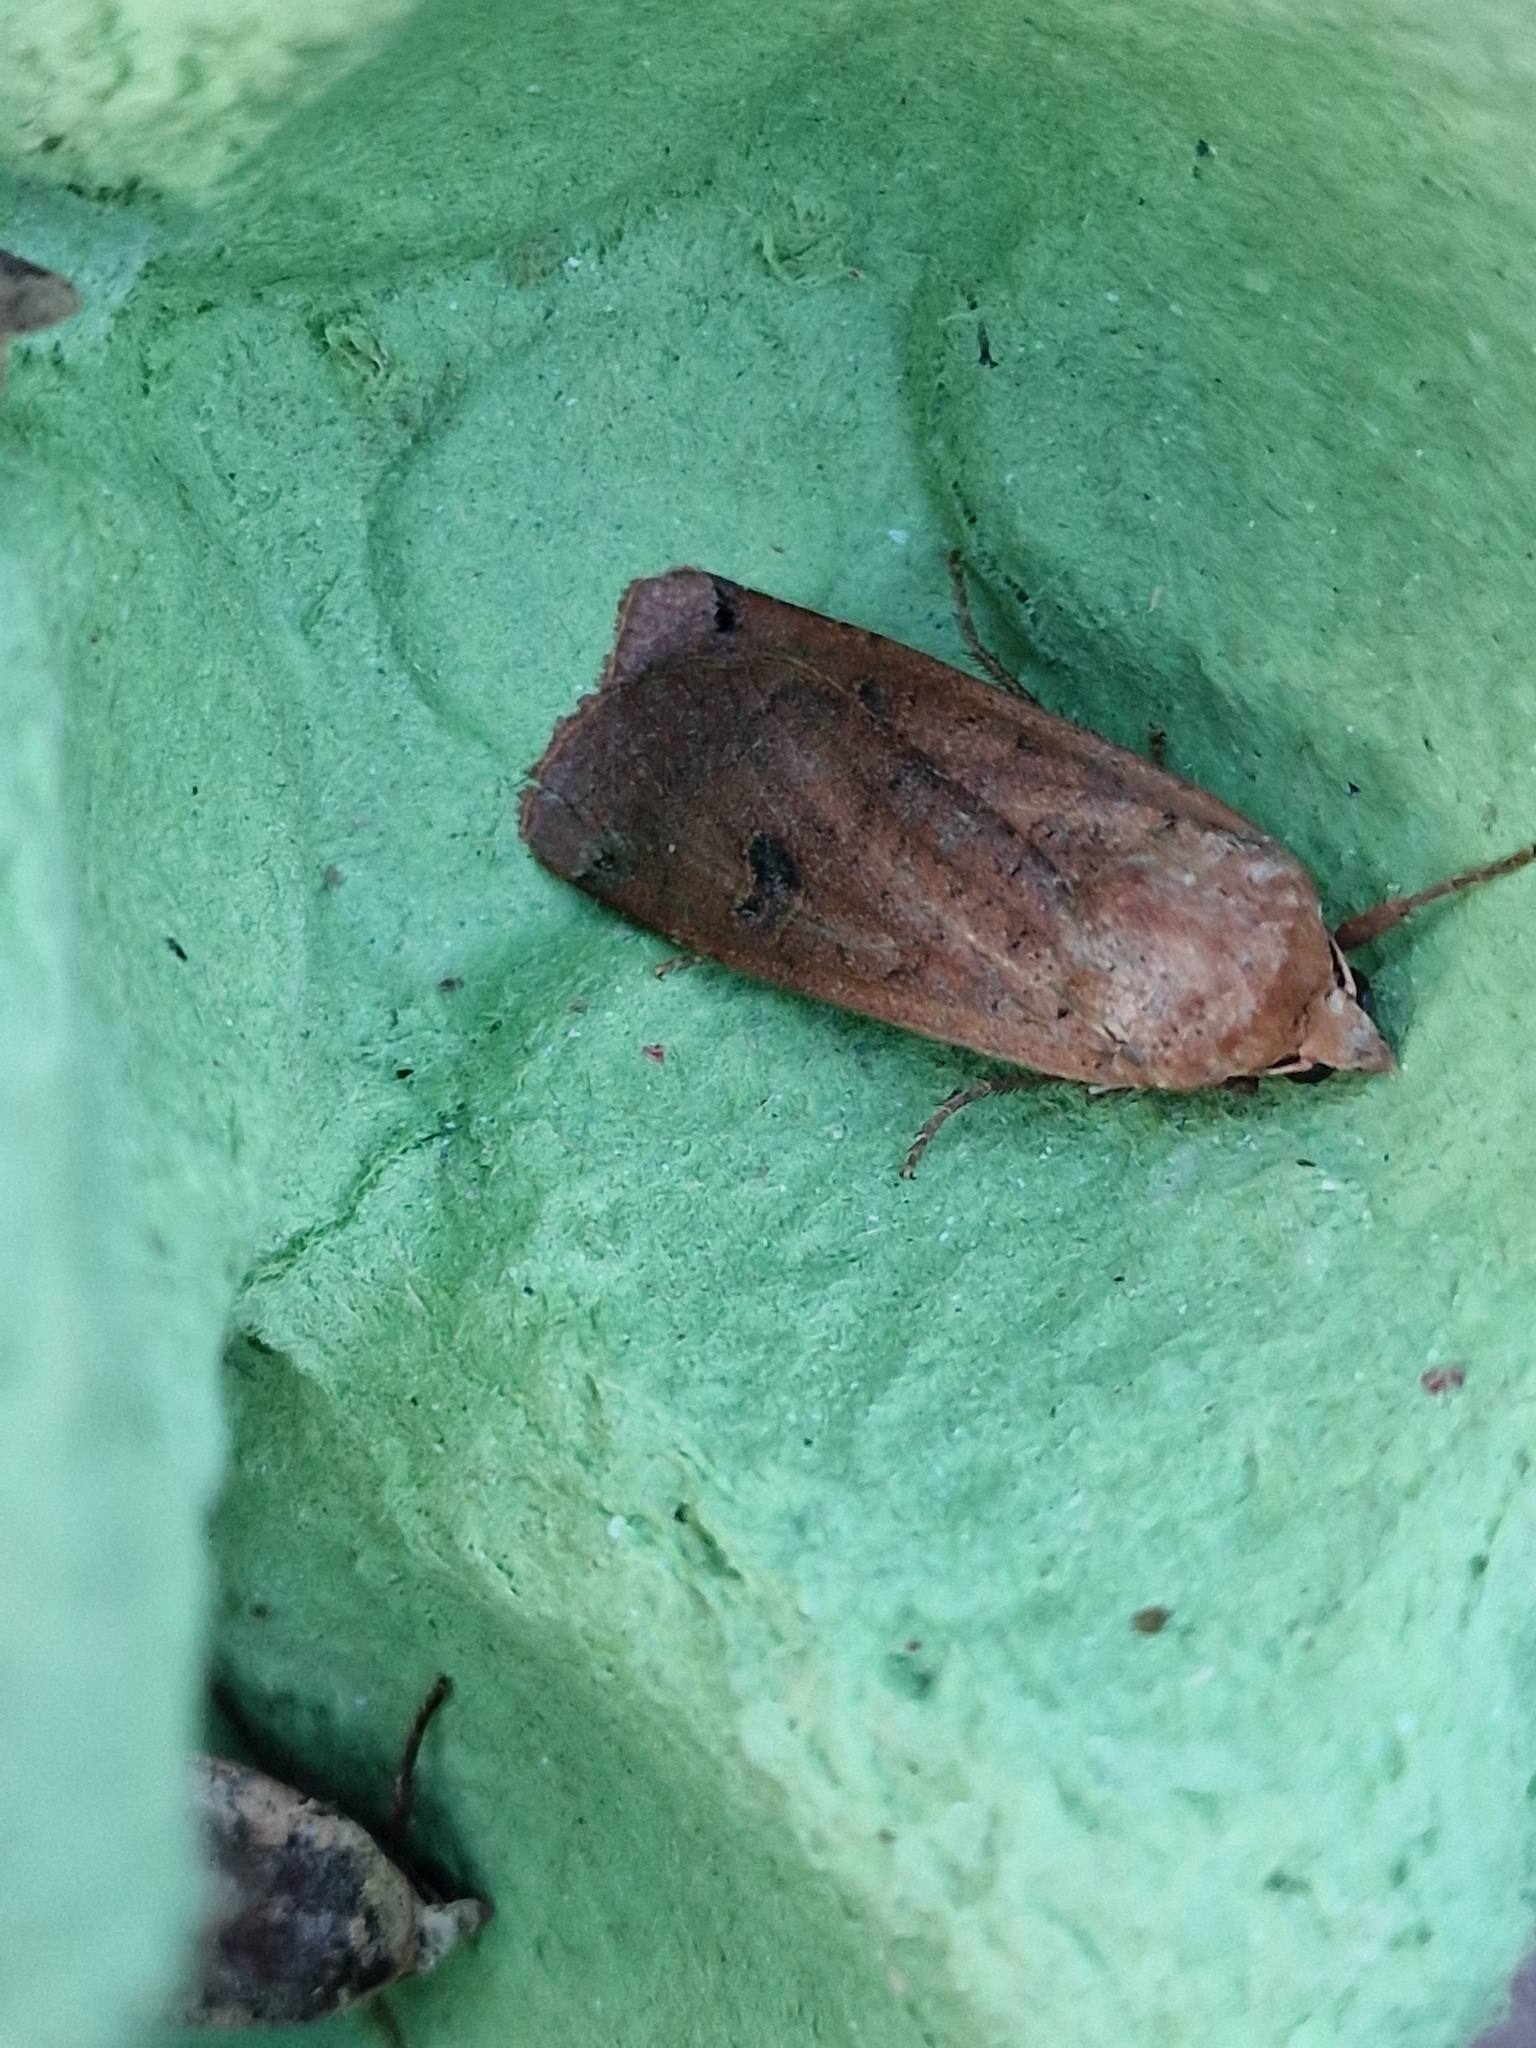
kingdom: Animalia
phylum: Arthropoda
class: Insecta
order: Lepidoptera
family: Noctuidae
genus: Noctua
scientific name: Noctua pronuba
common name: Large yellow underwing
